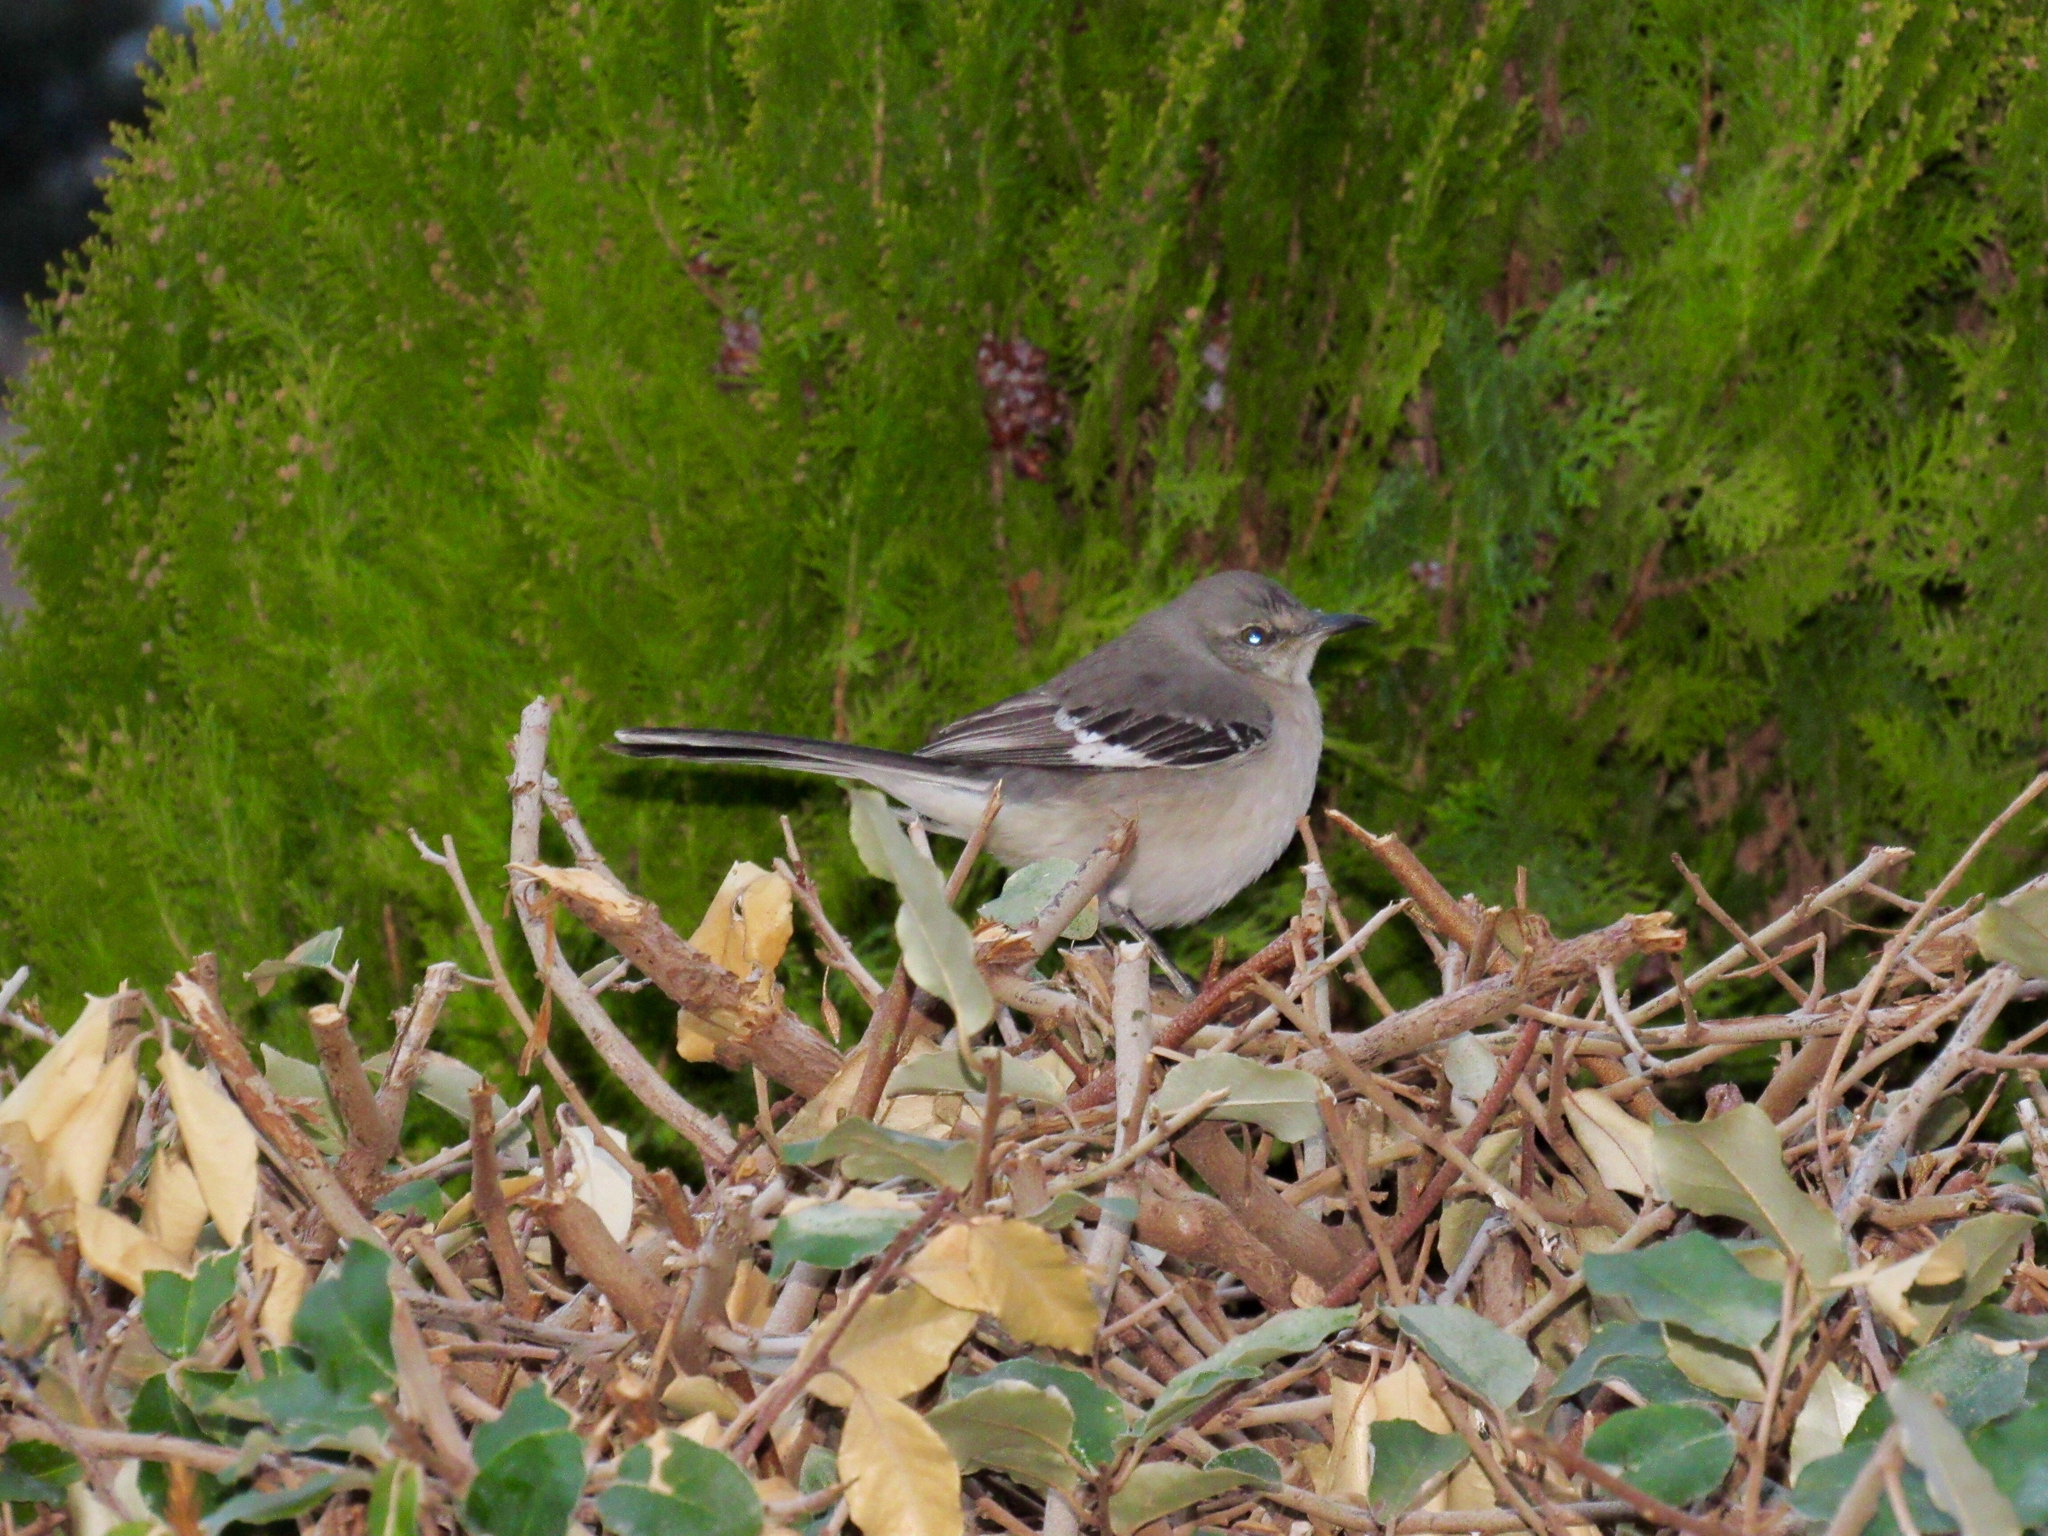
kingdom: Animalia
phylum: Chordata
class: Aves
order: Passeriformes
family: Mimidae
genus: Mimus
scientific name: Mimus polyglottos
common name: Northern mockingbird
